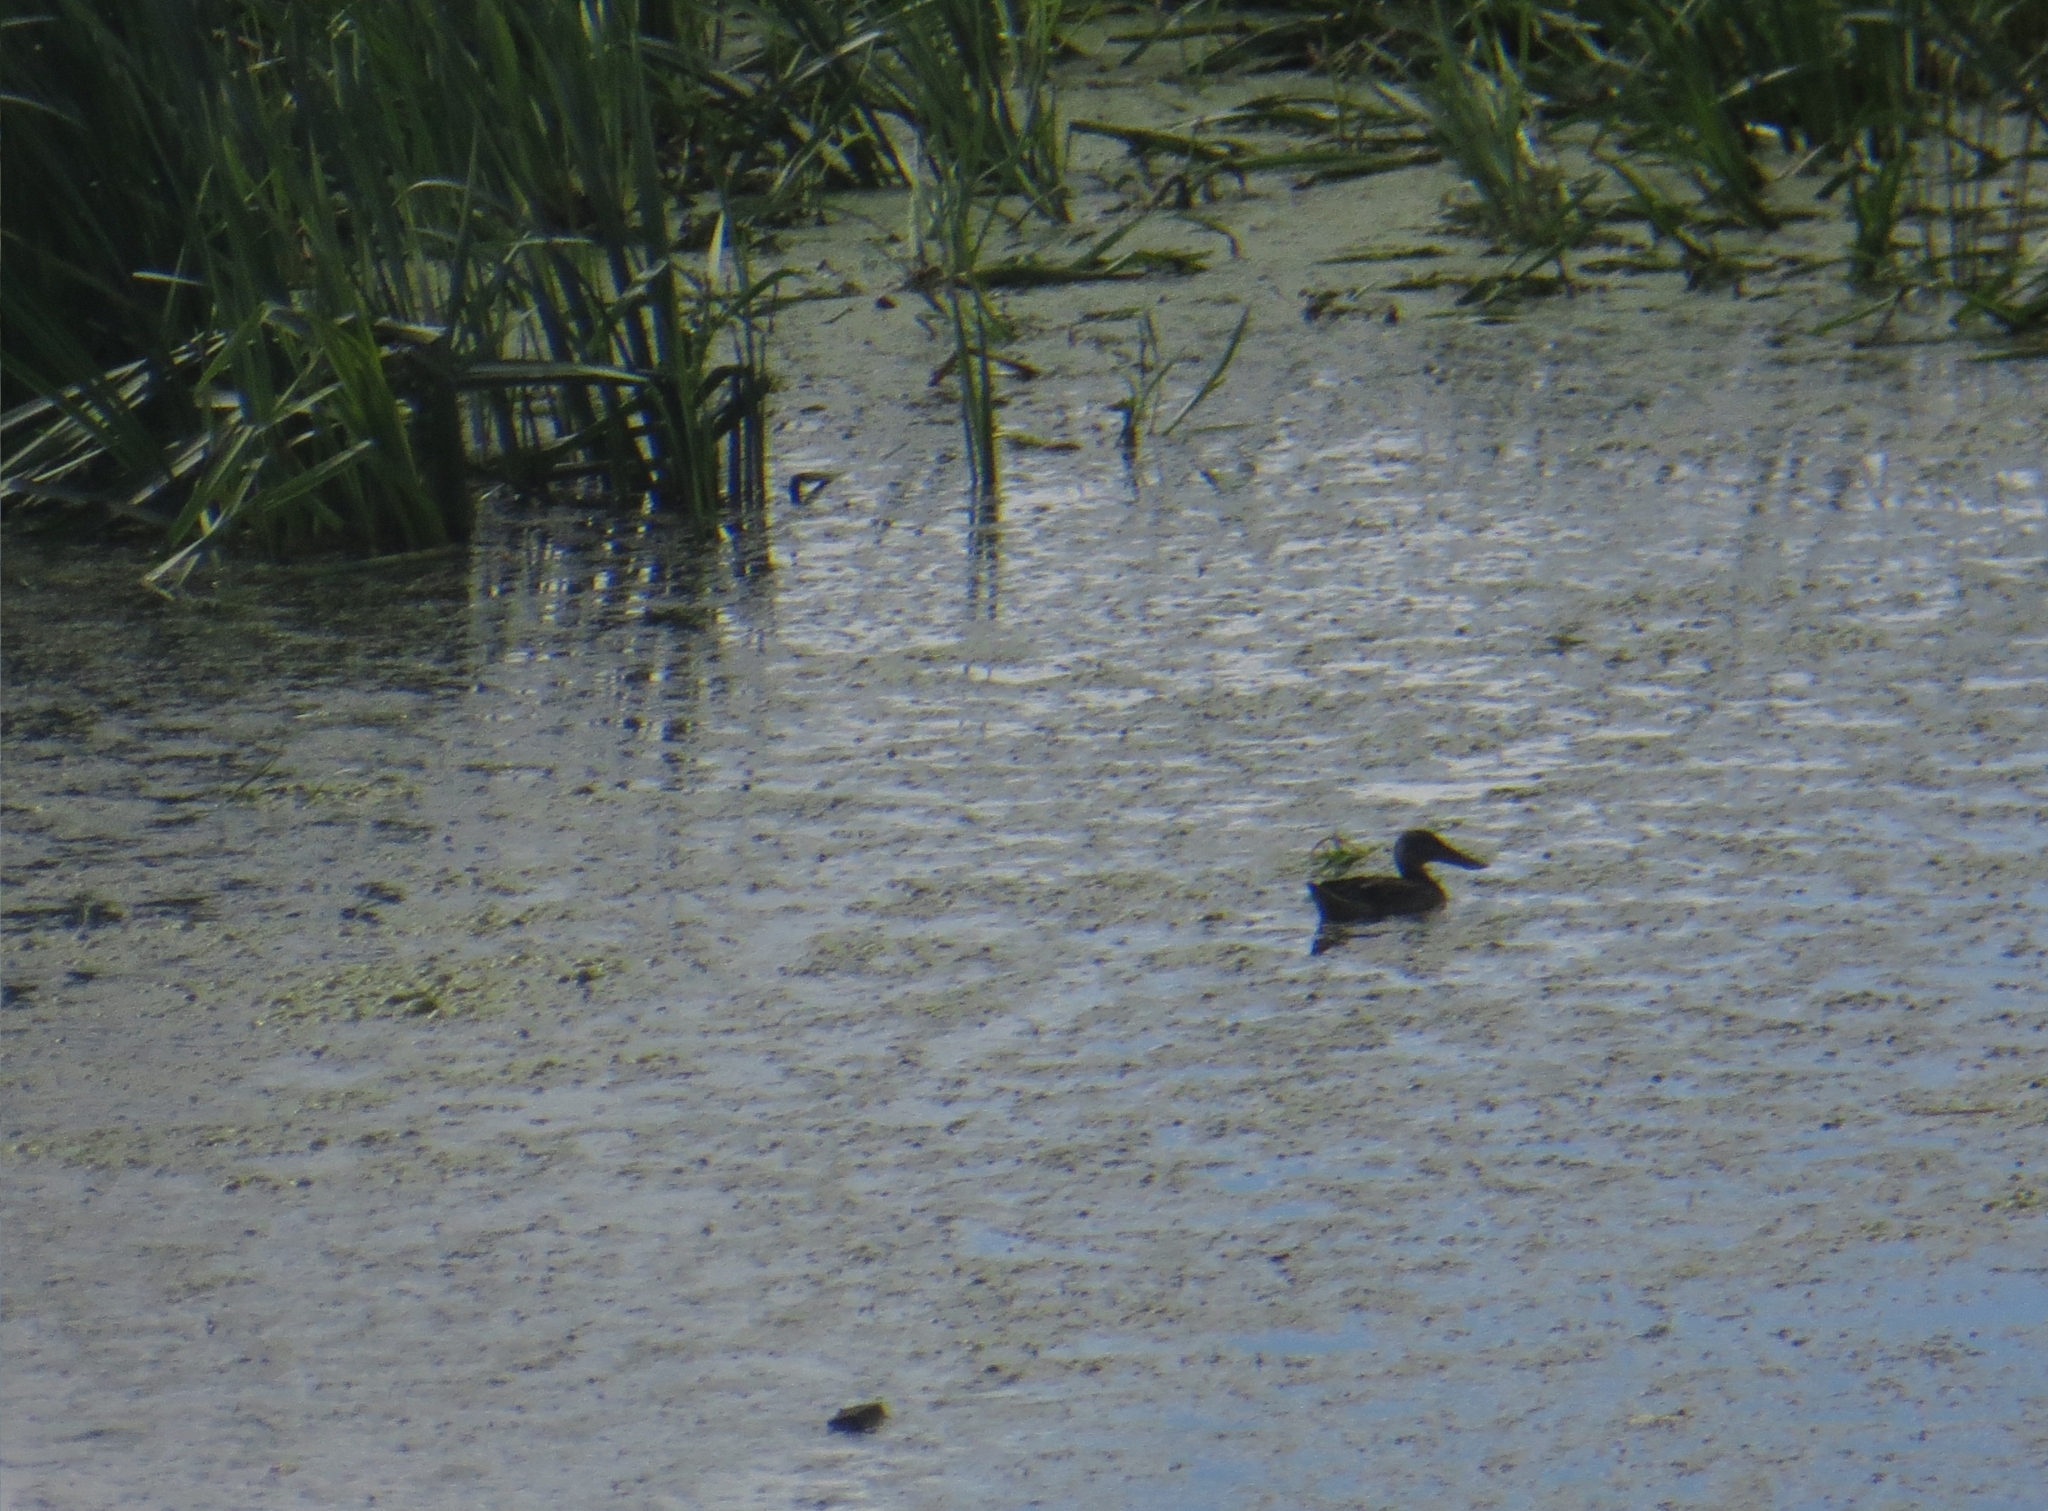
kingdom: Animalia
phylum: Chordata
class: Aves
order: Anseriformes
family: Anatidae
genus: Spatula
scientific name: Spatula clypeata
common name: Northern shoveler
